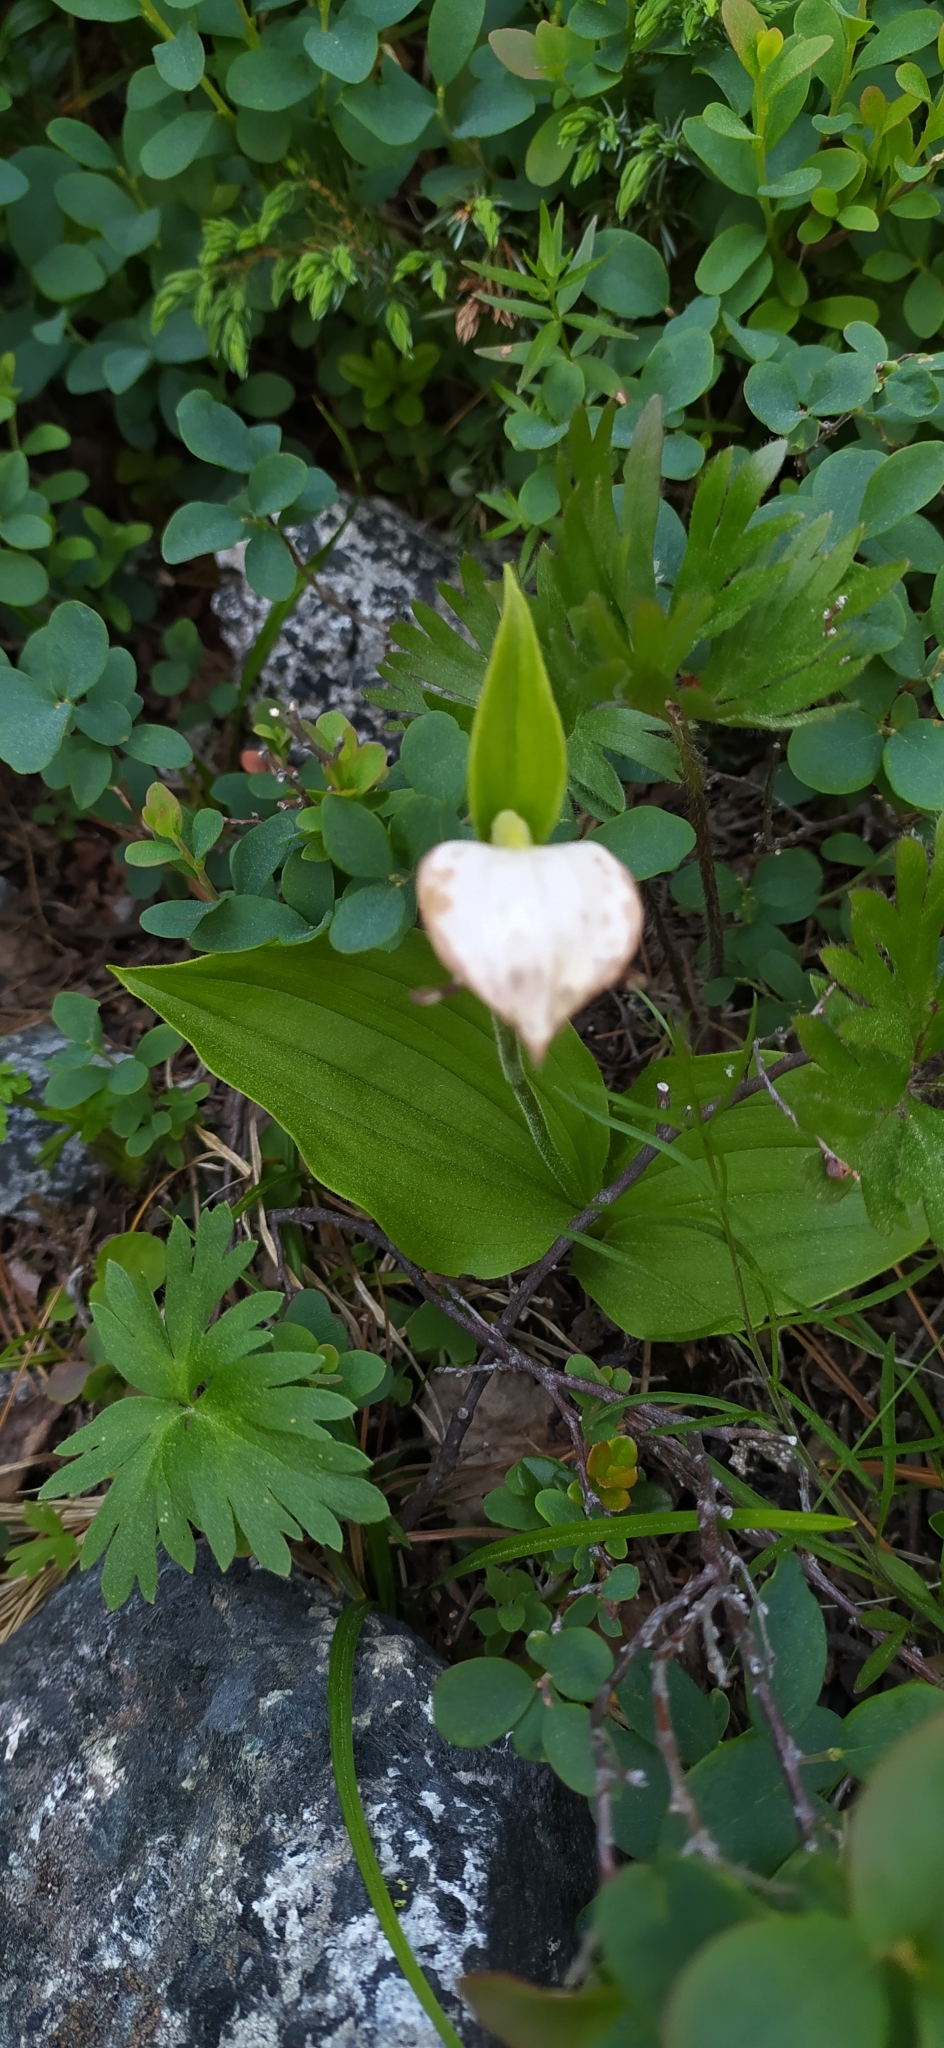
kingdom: Plantae
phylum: Tracheophyta
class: Liliopsida
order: Asparagales
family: Orchidaceae
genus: Cypripedium
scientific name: Cypripedium guttatum
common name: Pink lady slipper
